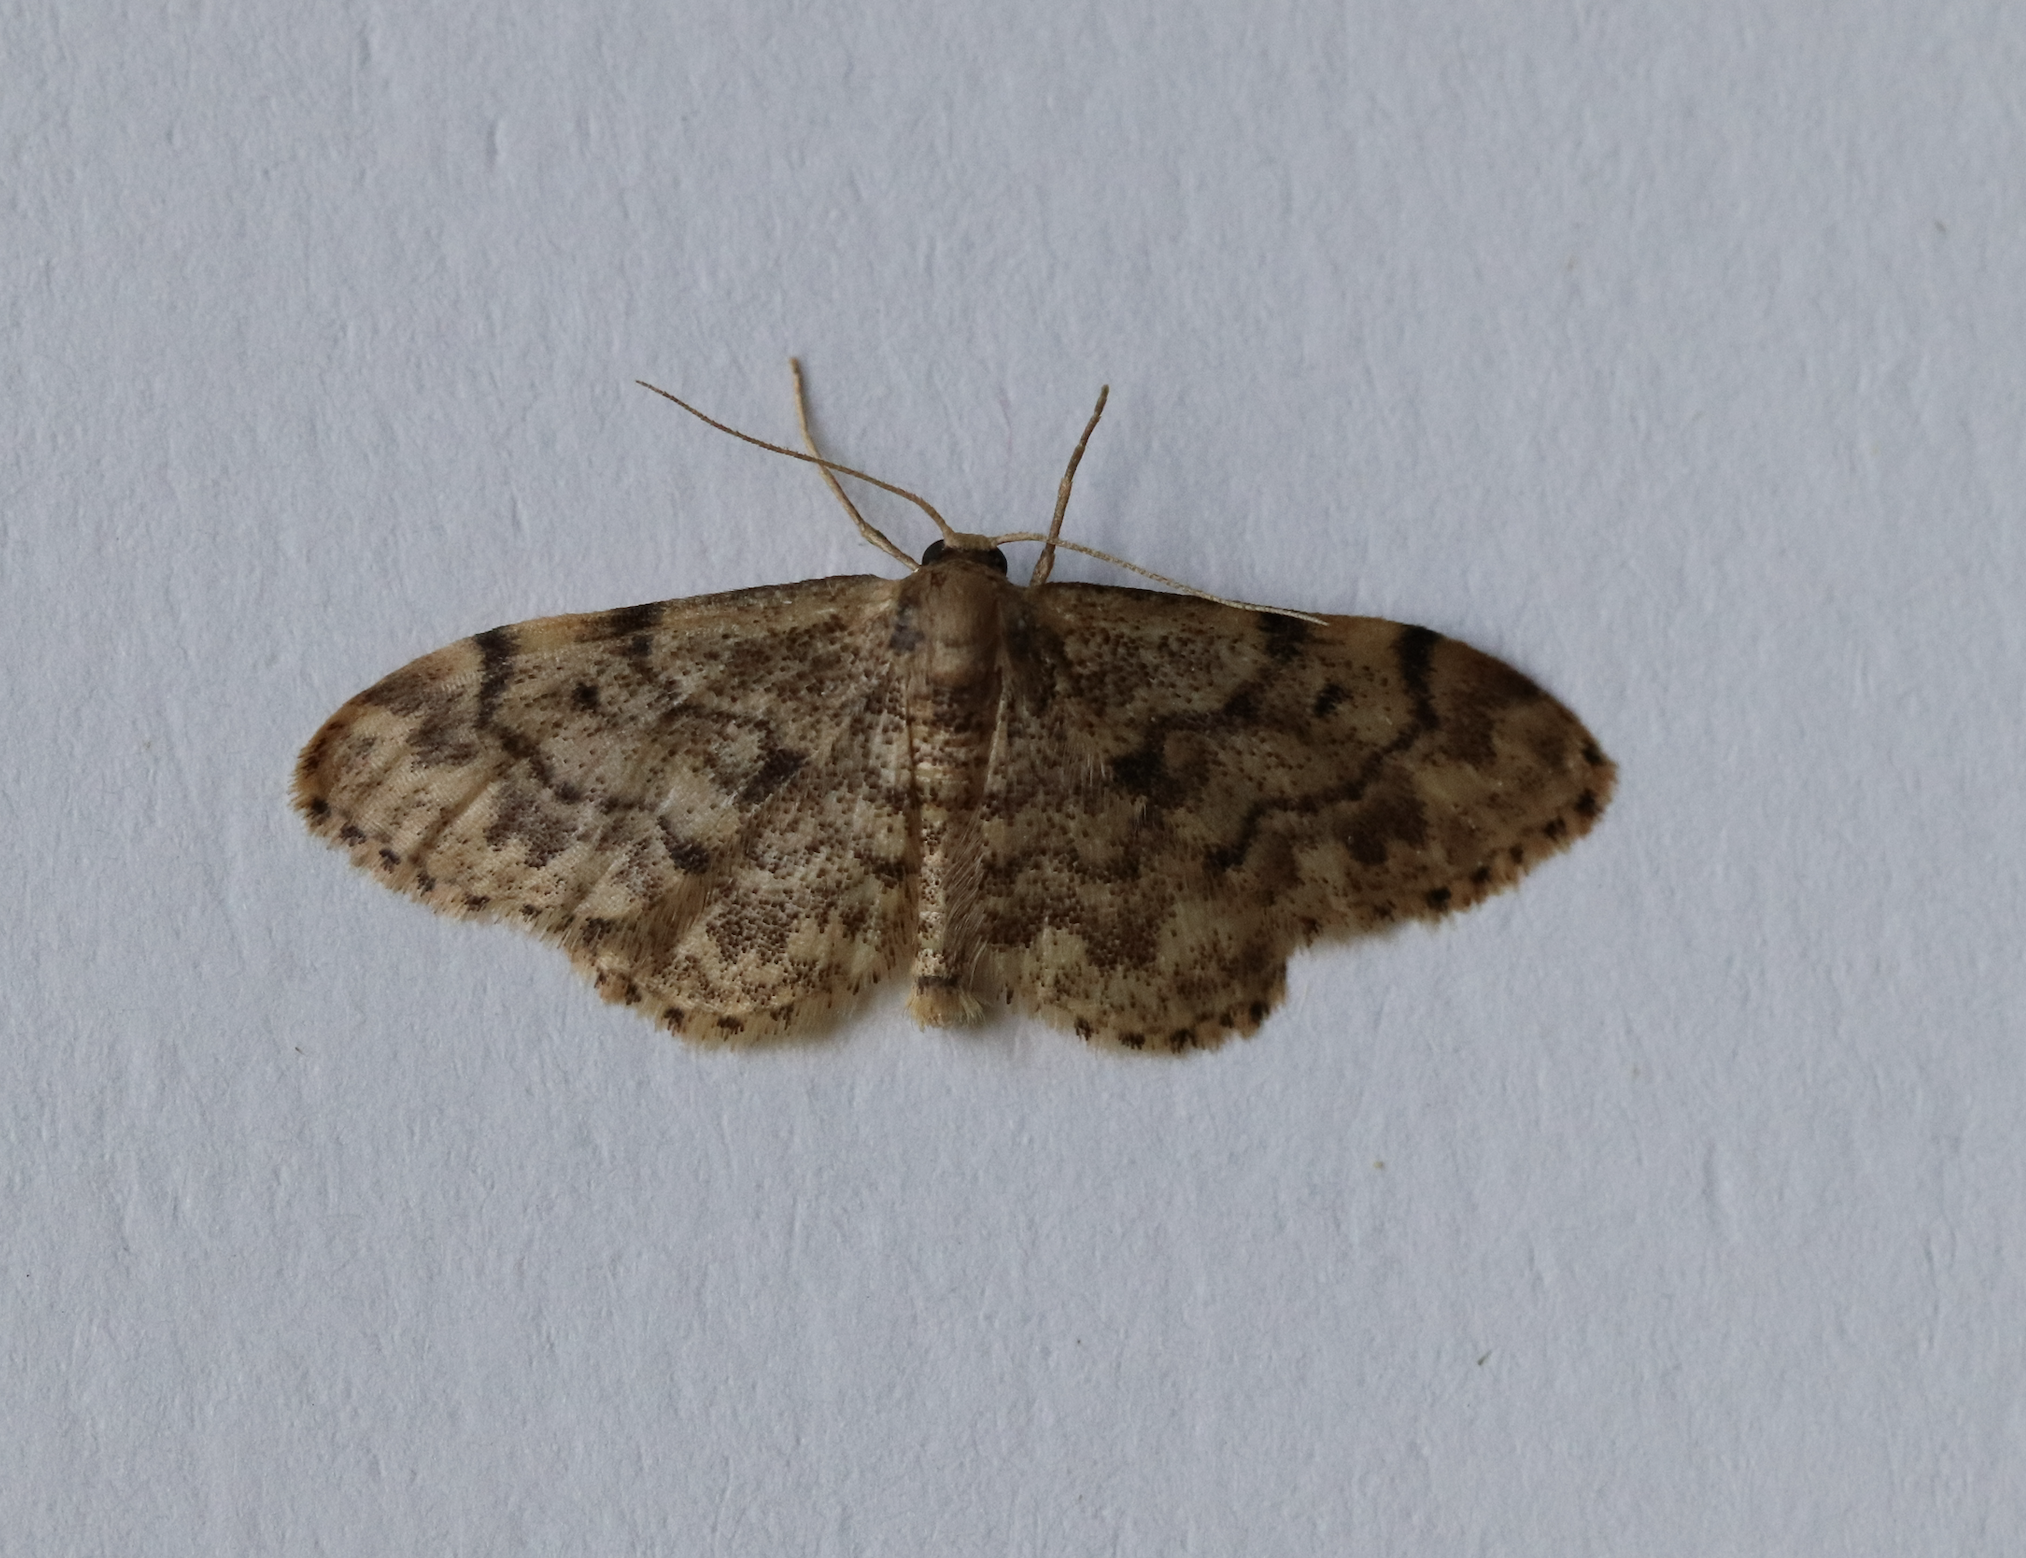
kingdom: Animalia
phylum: Arthropoda
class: Insecta
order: Lepidoptera
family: Geometridae
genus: Idaea
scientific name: Idaea inquinata
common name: Rusty wave
